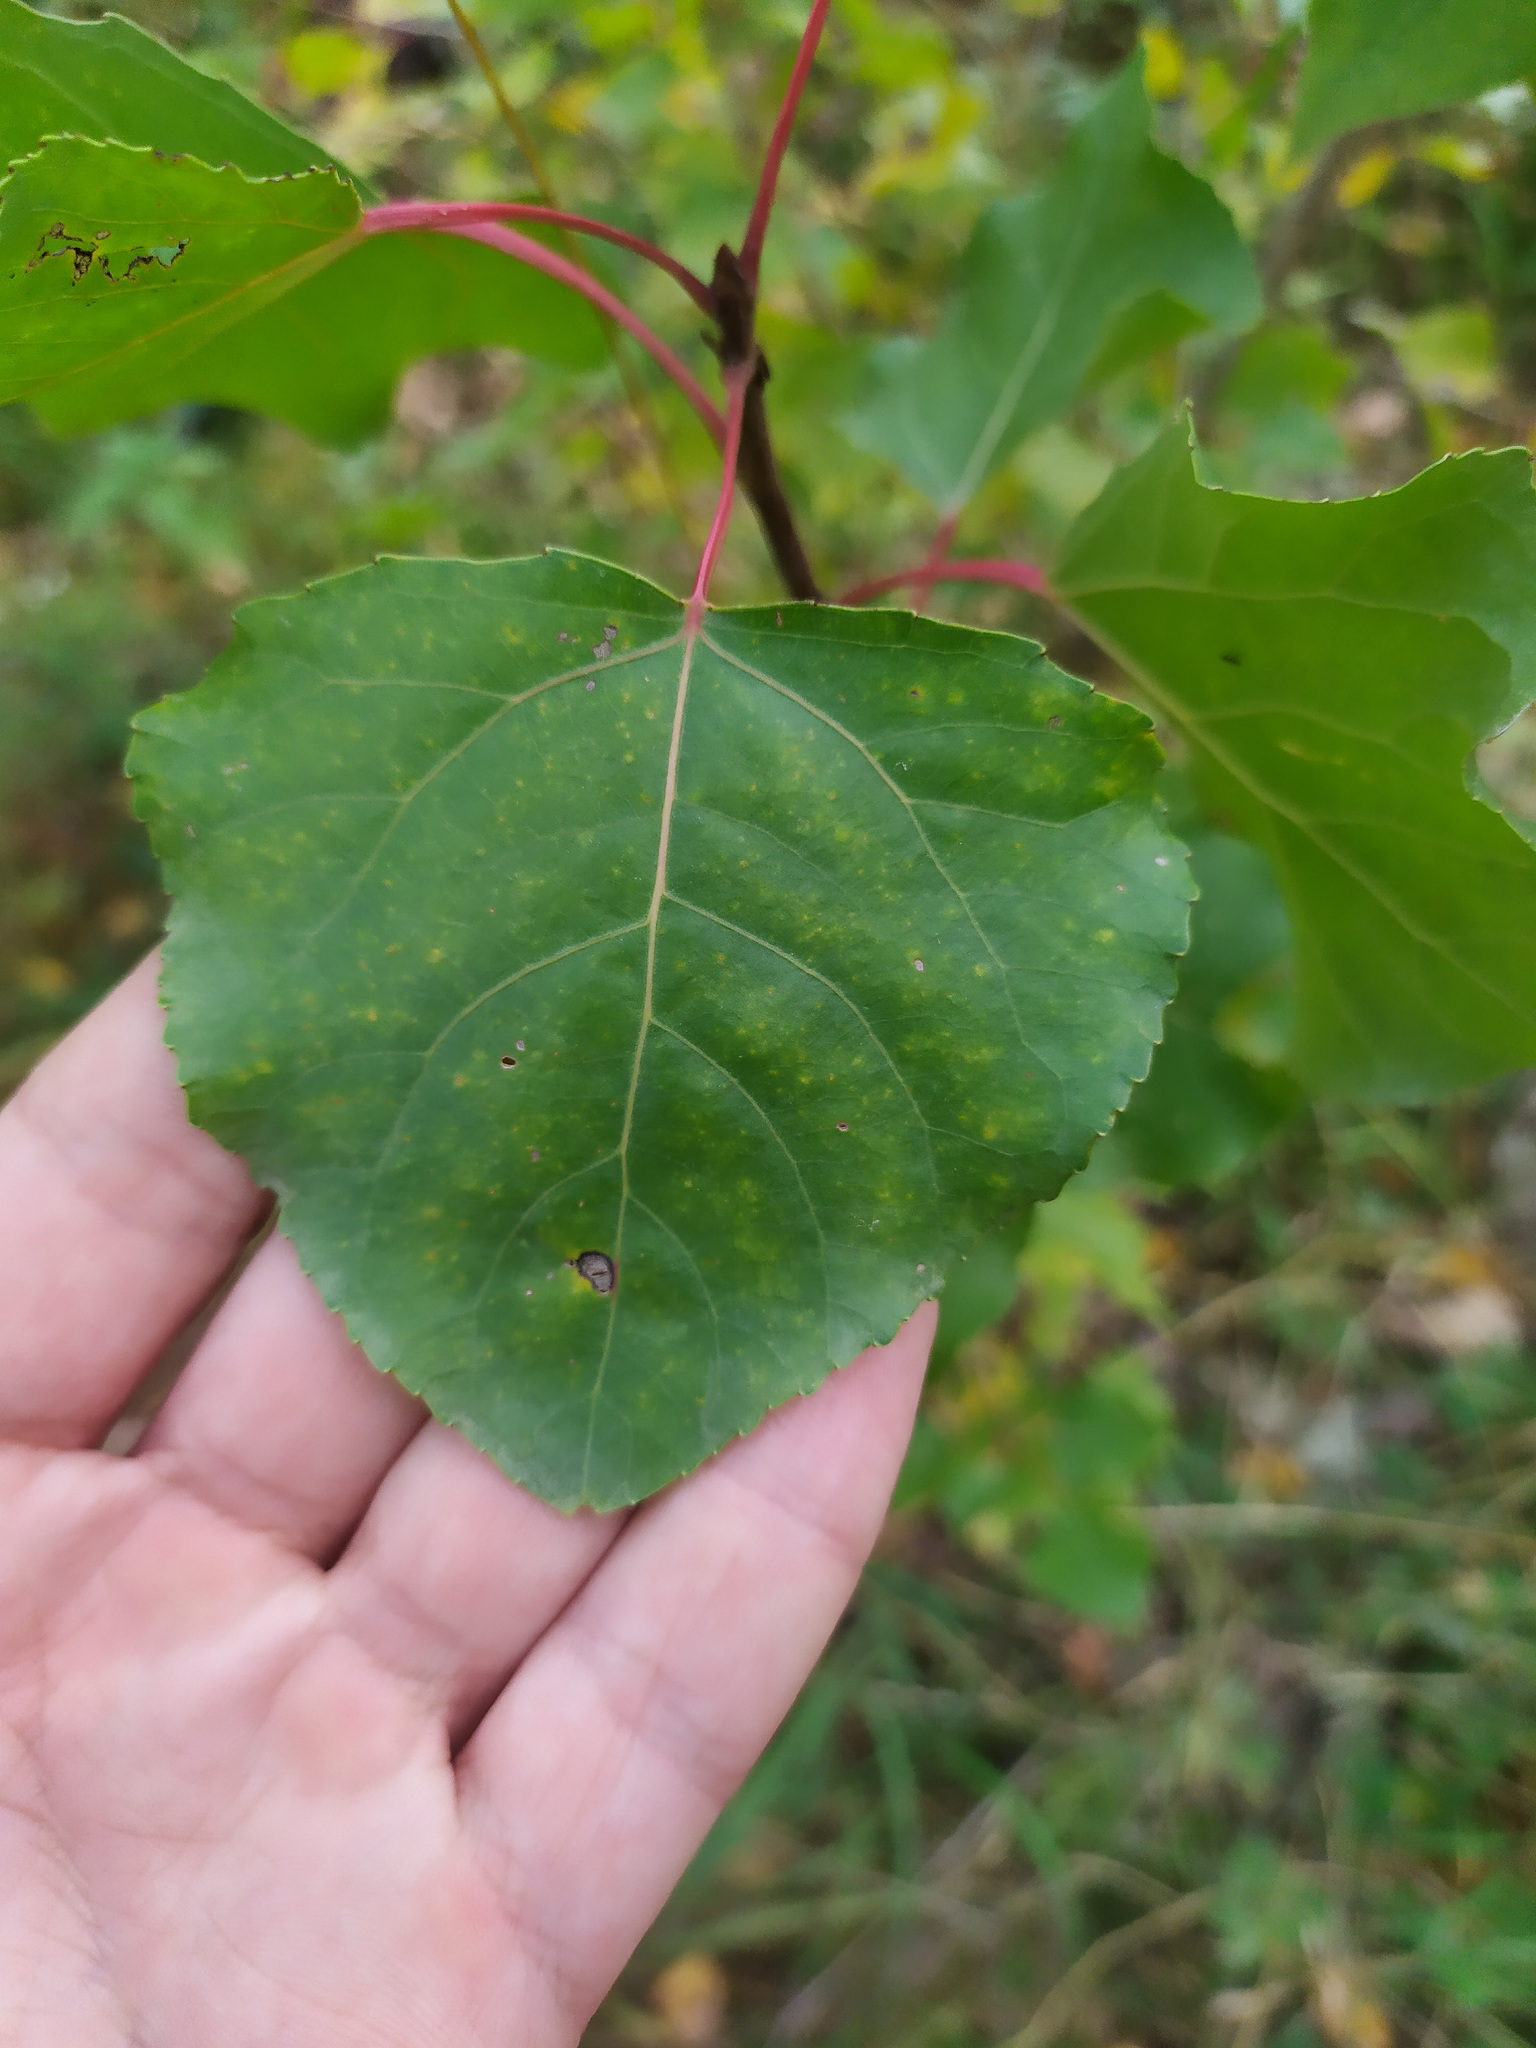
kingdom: Plantae
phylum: Tracheophyta
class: Magnoliopsida
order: Malpighiales
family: Salicaceae
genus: Populus
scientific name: Populus tremula
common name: European aspen
